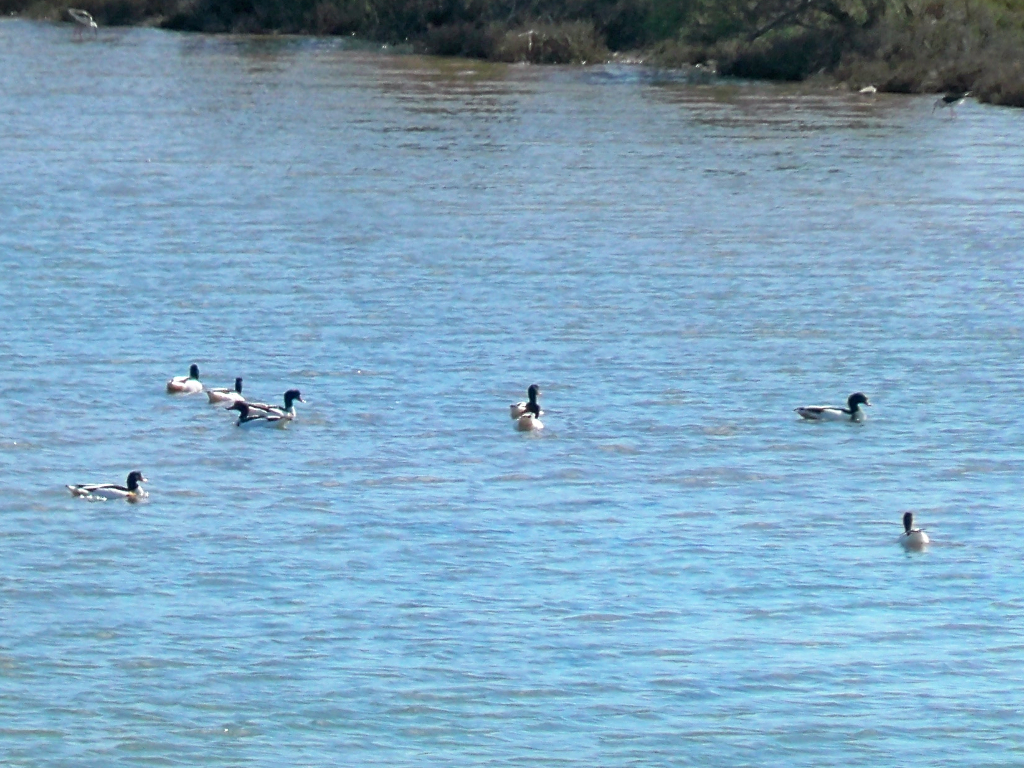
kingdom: Animalia
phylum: Chordata
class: Aves
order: Anseriformes
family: Anatidae
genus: Tadorna
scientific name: Tadorna tadorna
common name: Common shelduck
